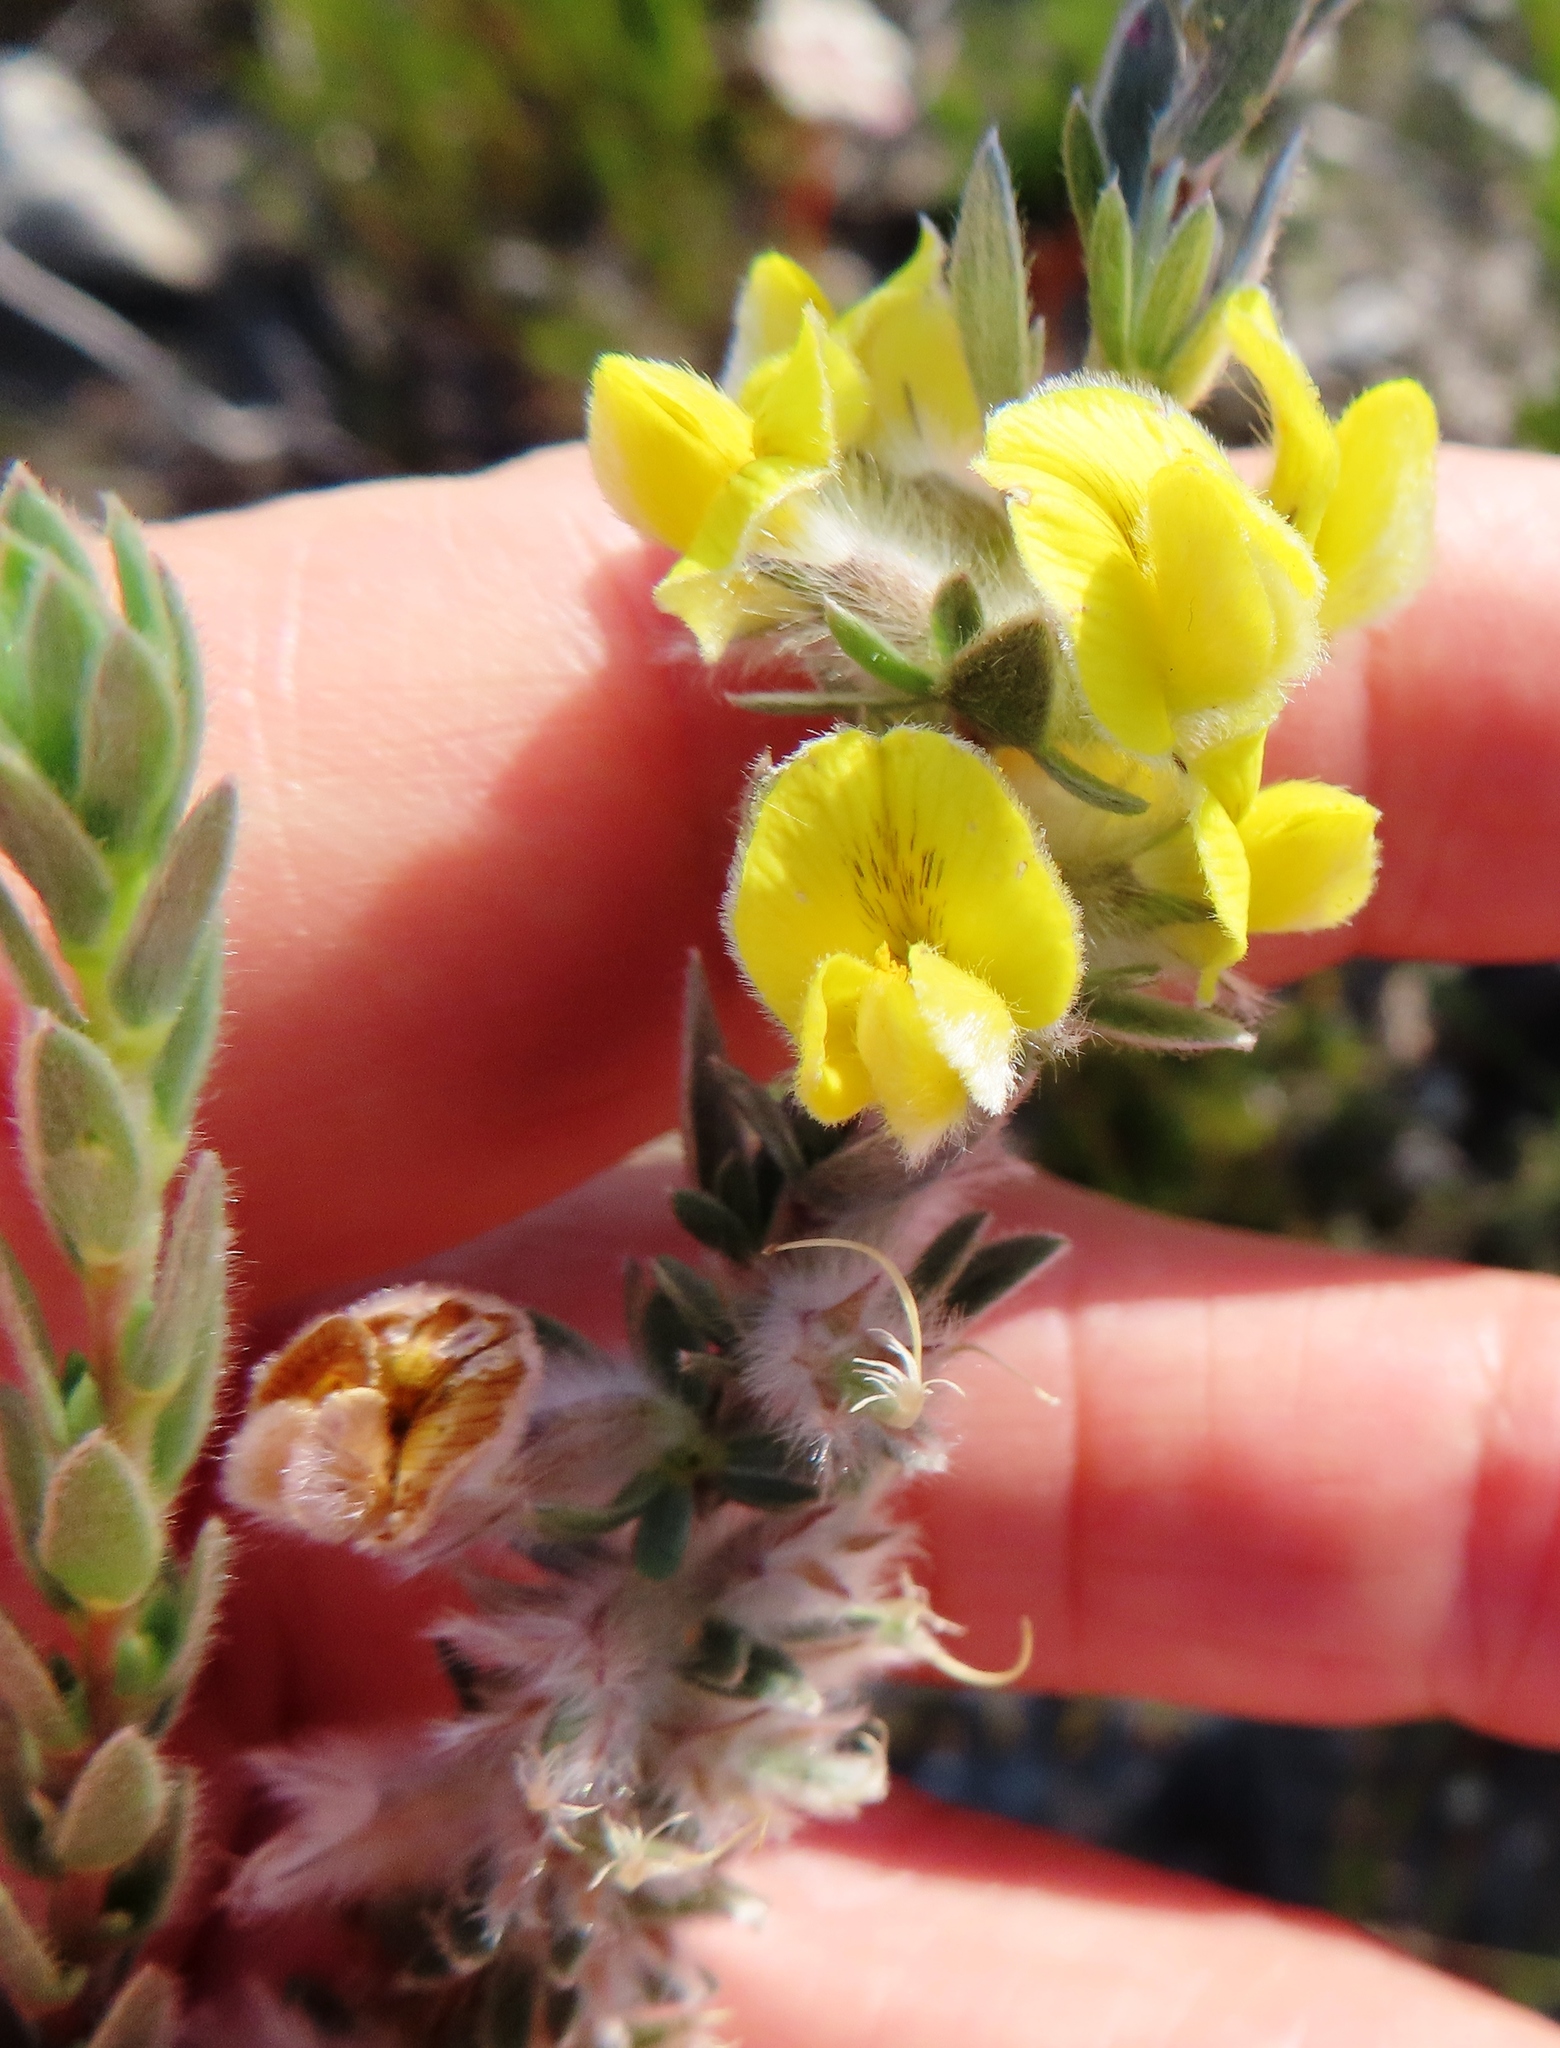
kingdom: Plantae
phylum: Tracheophyta
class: Magnoliopsida
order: Fabales
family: Fabaceae
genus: Aspalathus
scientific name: Aspalathus caledonensis
